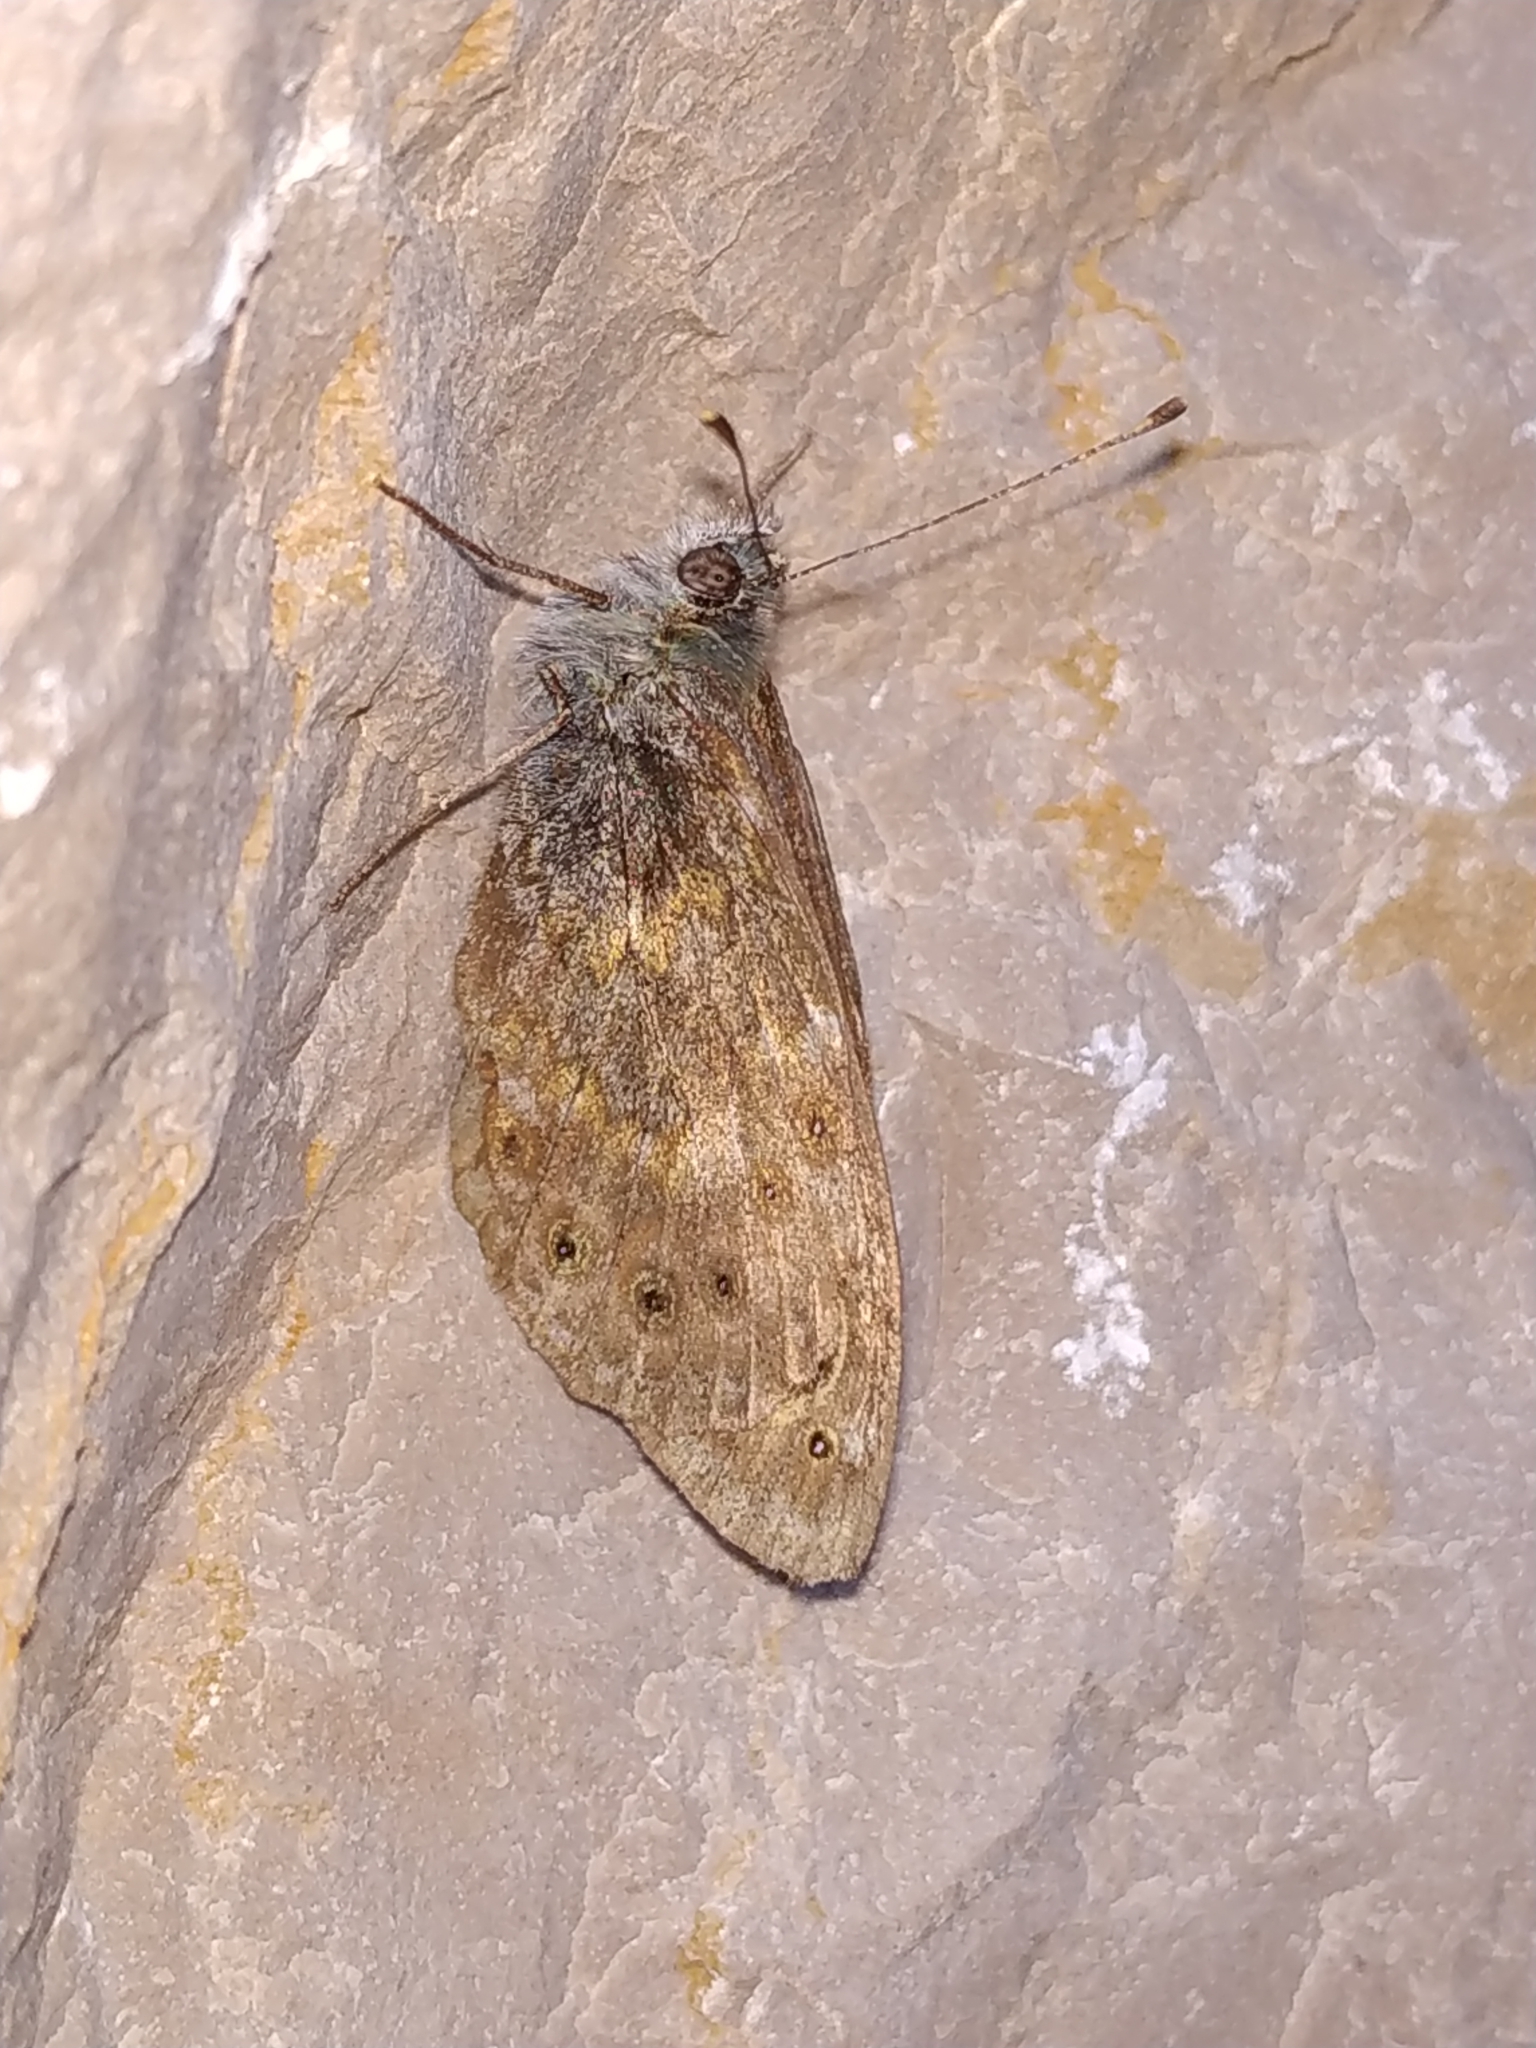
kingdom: Animalia
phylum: Arthropoda
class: Insecta
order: Lepidoptera
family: Nymphalidae
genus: Pararge
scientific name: Pararge Lasiommata megera
